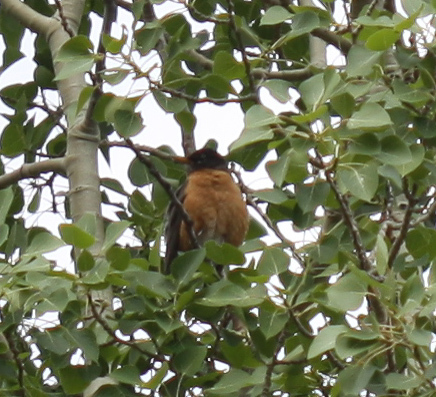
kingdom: Animalia
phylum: Chordata
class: Aves
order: Passeriformes
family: Turdidae
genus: Turdus
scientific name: Turdus migratorius
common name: American robin
